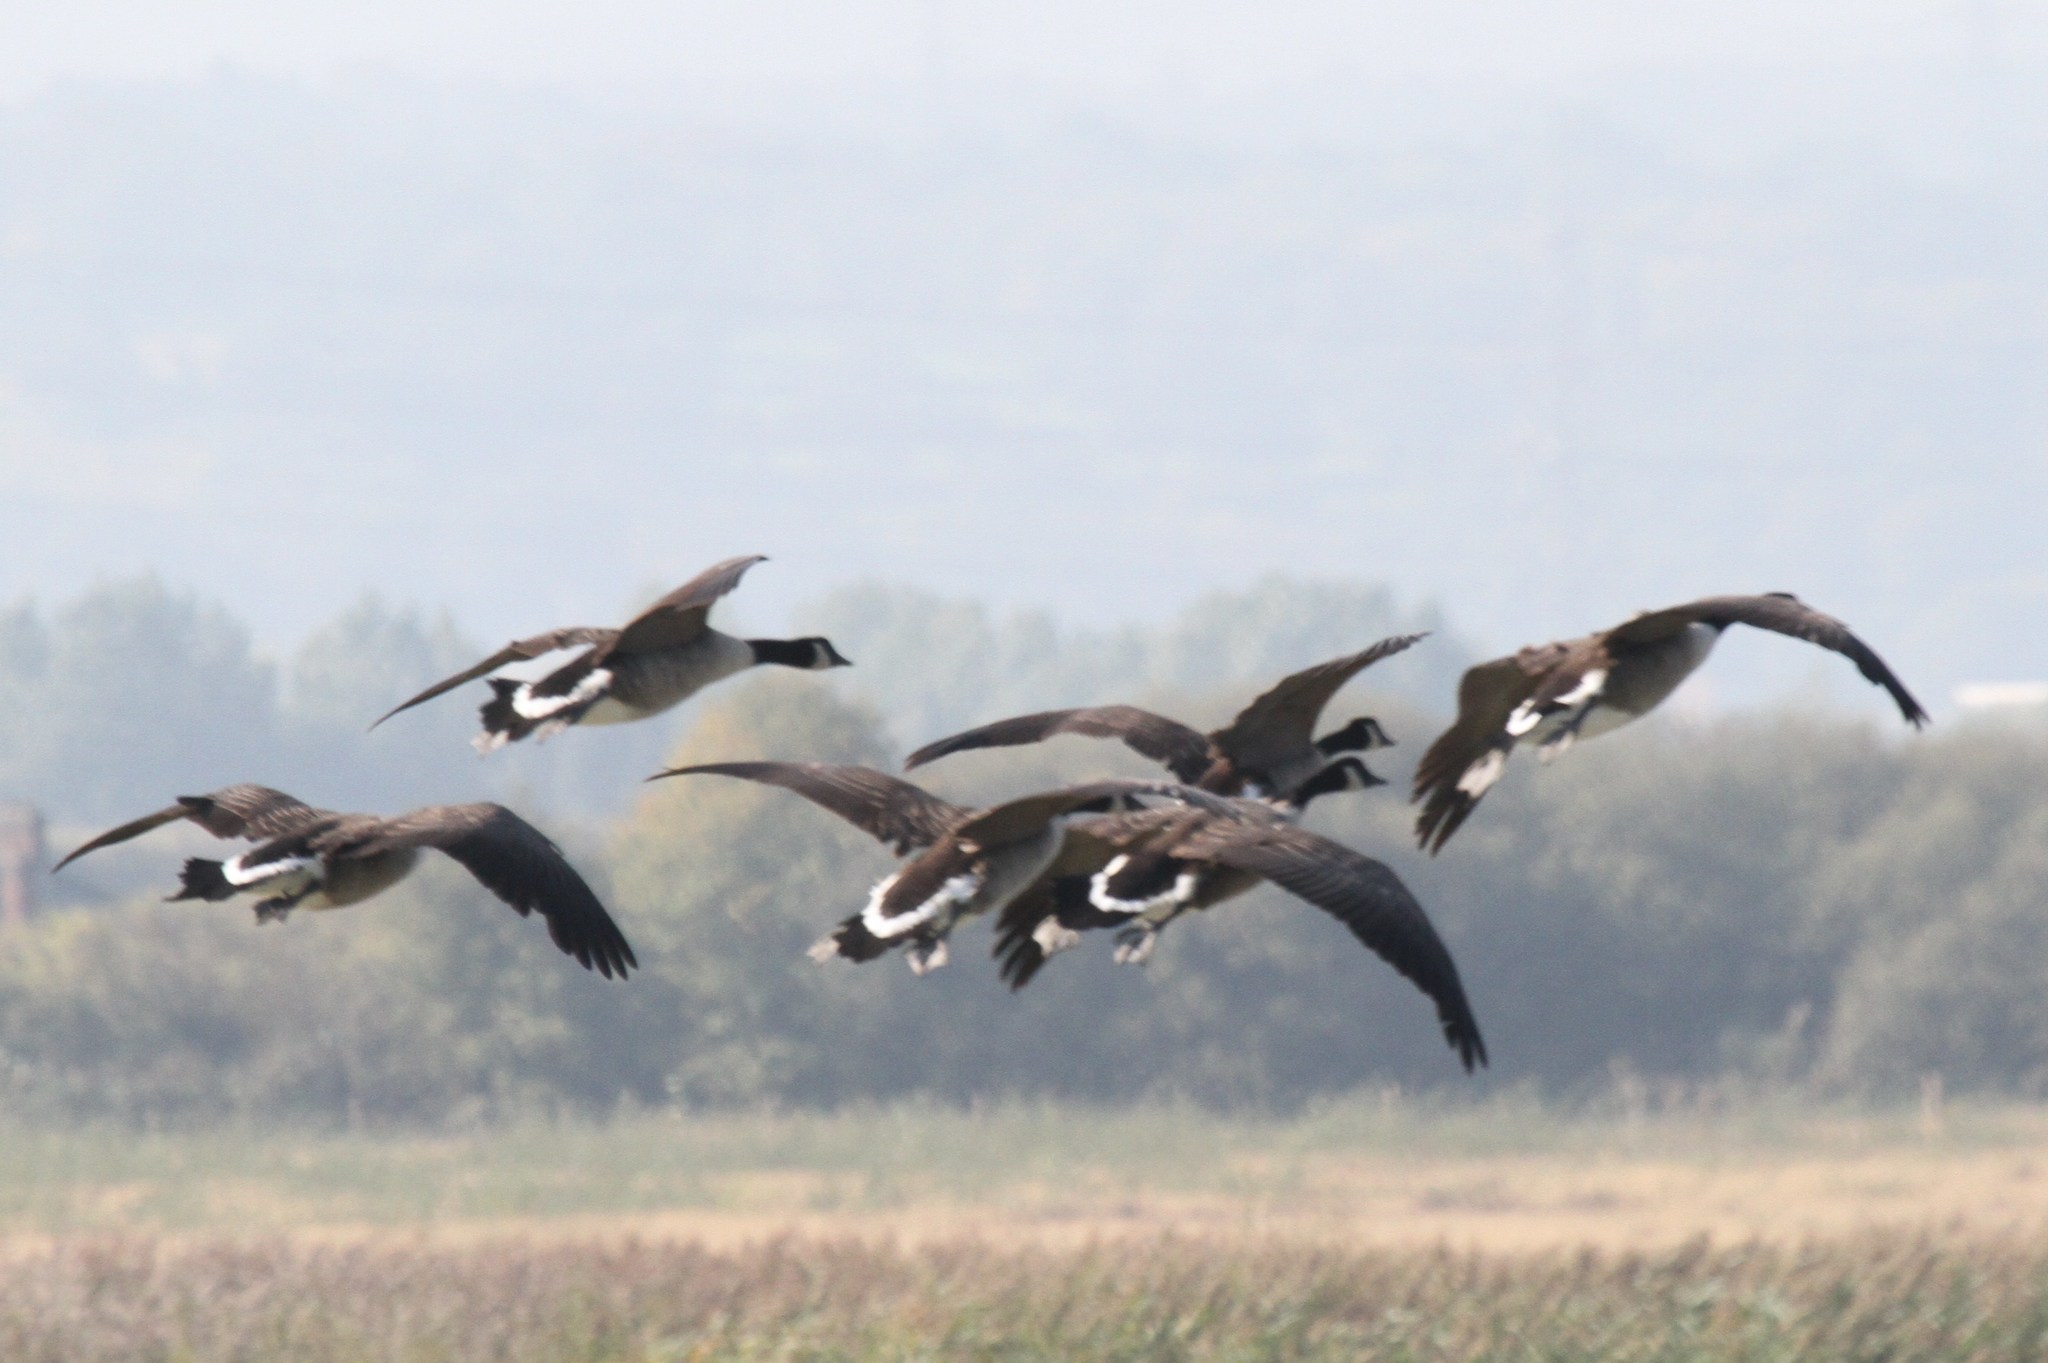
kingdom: Animalia
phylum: Chordata
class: Aves
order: Anseriformes
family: Anatidae
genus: Branta
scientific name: Branta canadensis
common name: Canada goose
